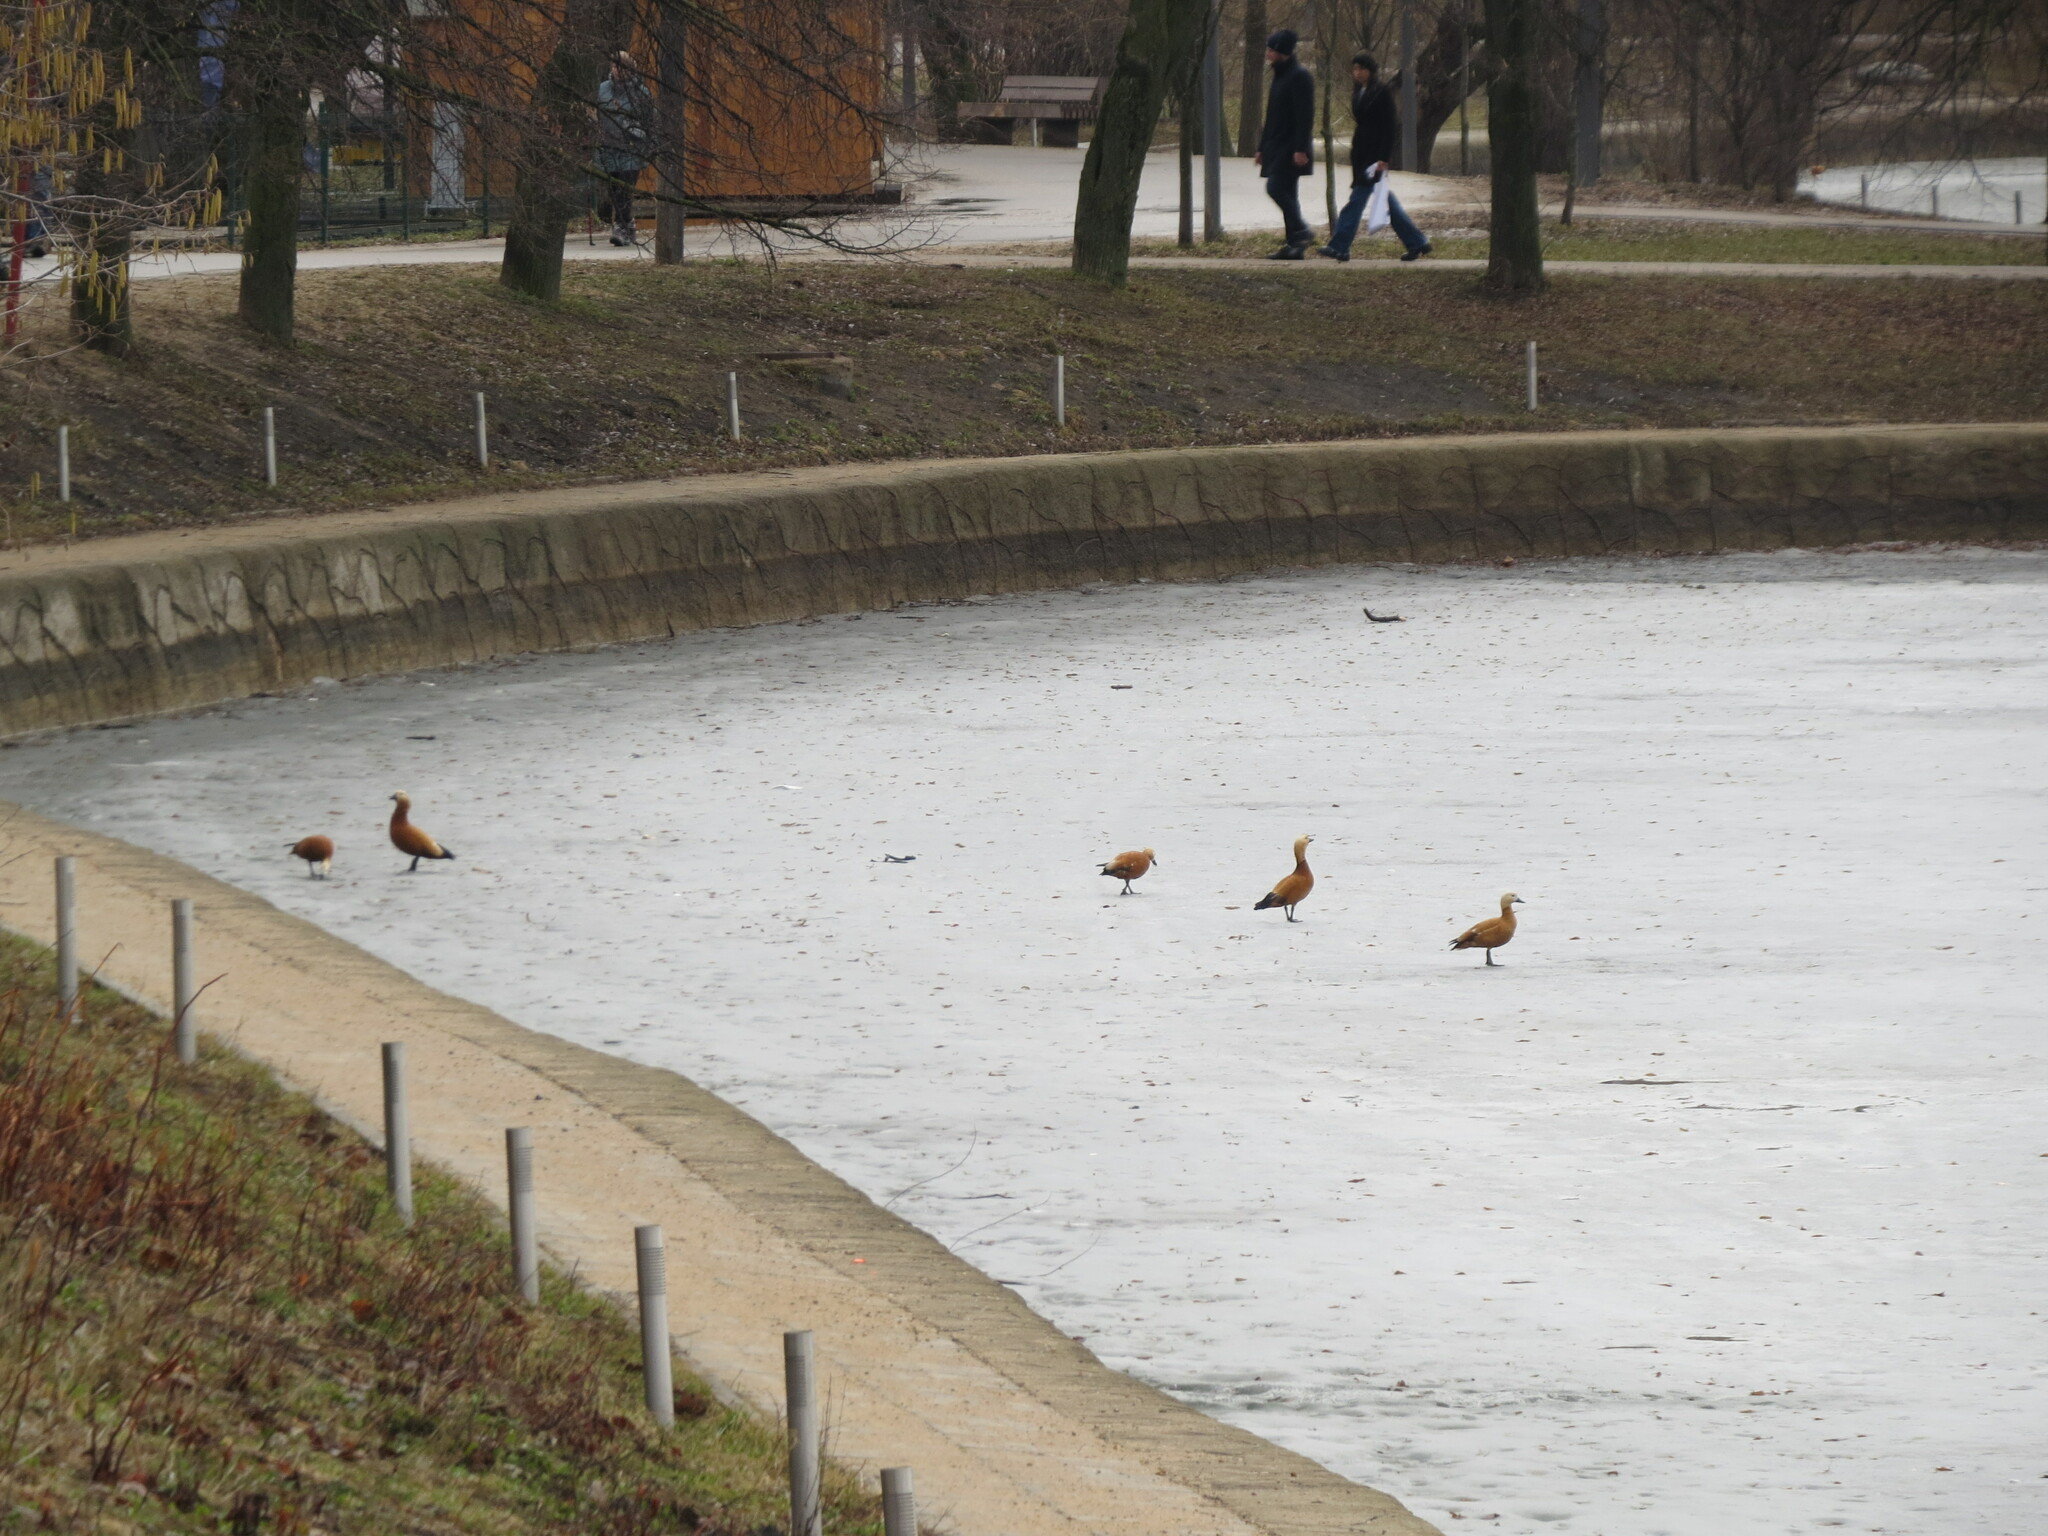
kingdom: Animalia
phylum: Chordata
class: Aves
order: Anseriformes
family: Anatidae
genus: Tadorna
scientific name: Tadorna ferruginea
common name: Ruddy shelduck
